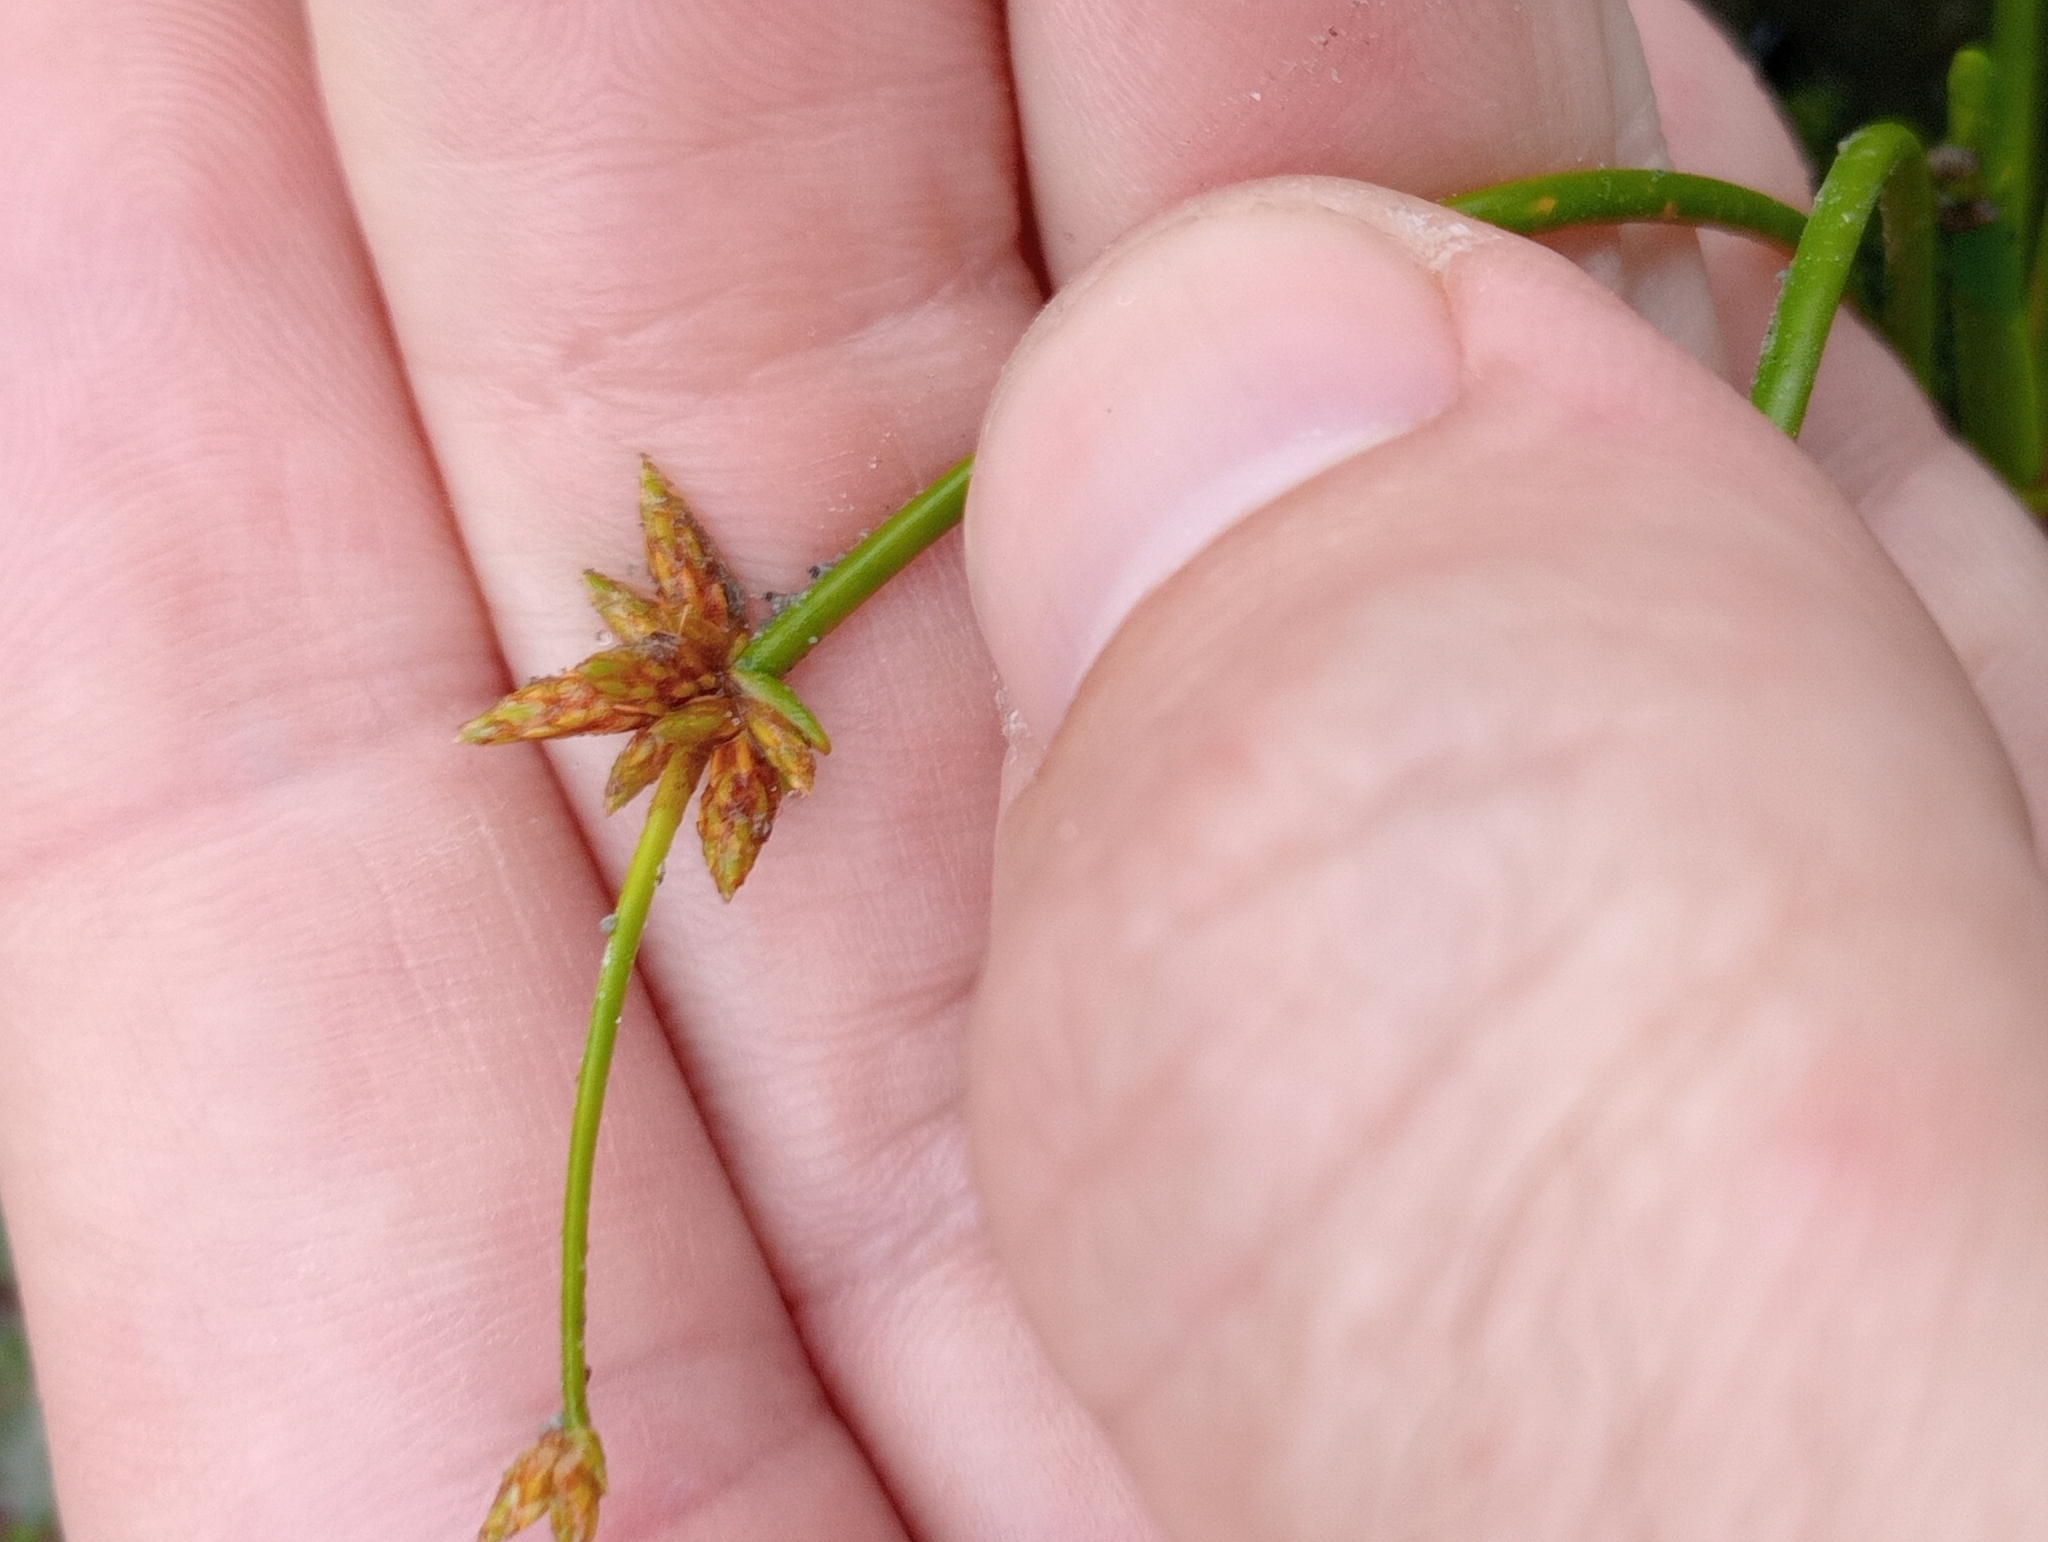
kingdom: Plantae
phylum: Tracheophyta
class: Liliopsida
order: Poales
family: Cyperaceae
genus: Isolepis
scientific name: Isolepis prolifera
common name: Proliferating bulrush
